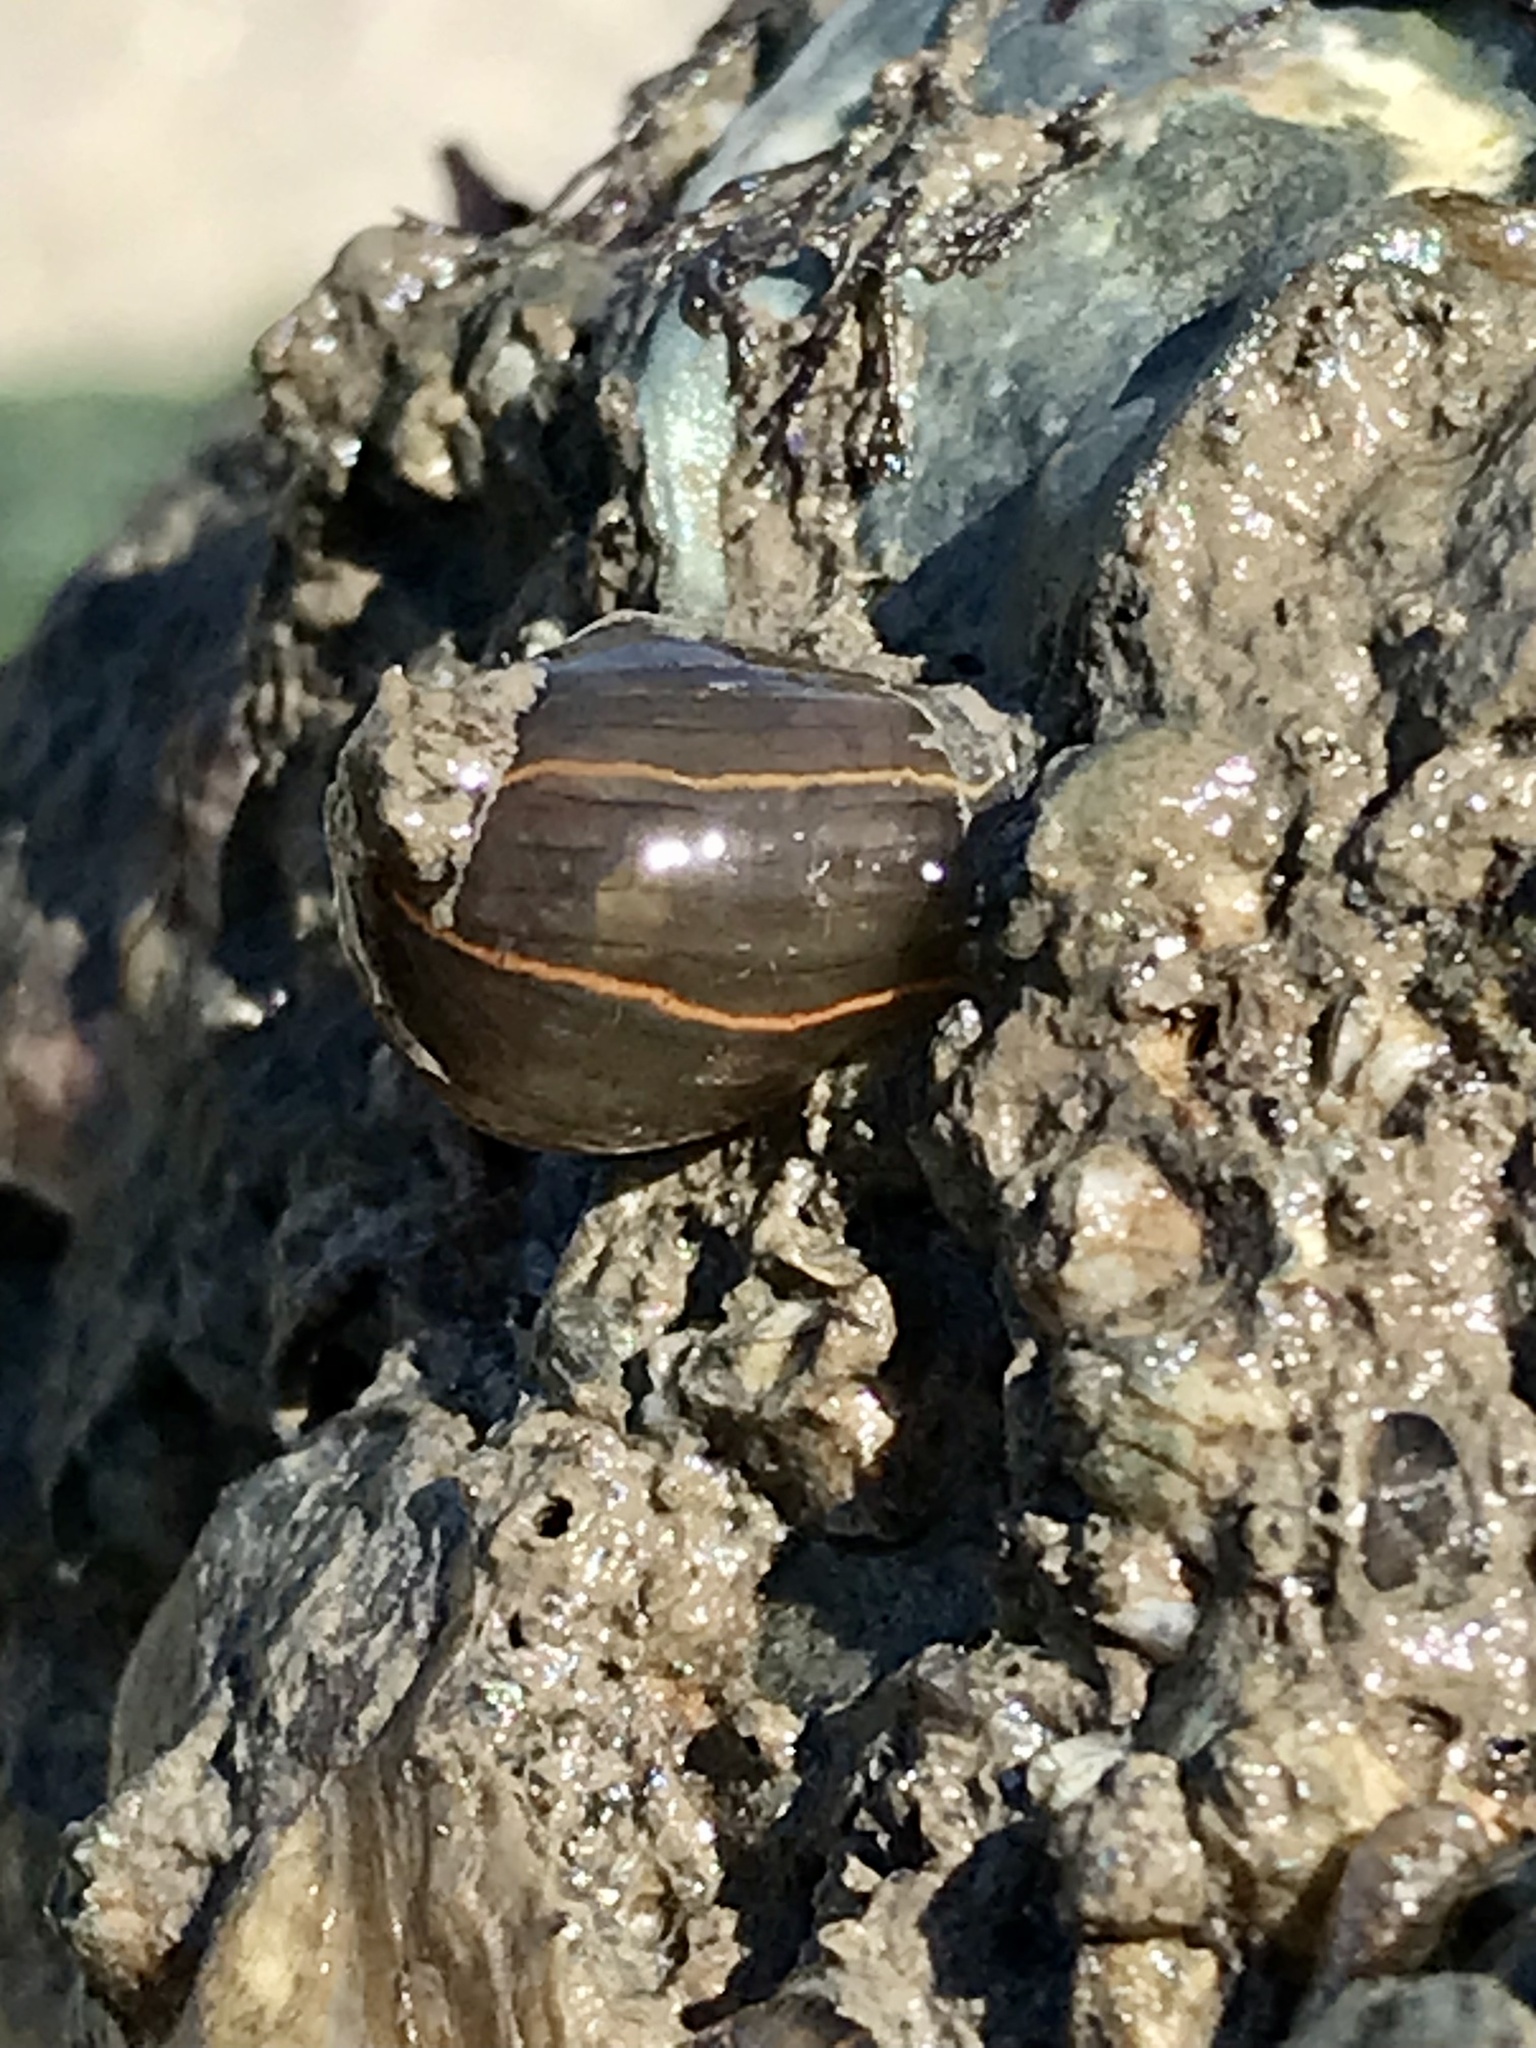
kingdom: Animalia
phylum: Cnidaria
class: Anthozoa
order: Actiniaria
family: Diadumenidae
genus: Diadumene
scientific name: Diadumene lineata
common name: Orange-striped anemone
